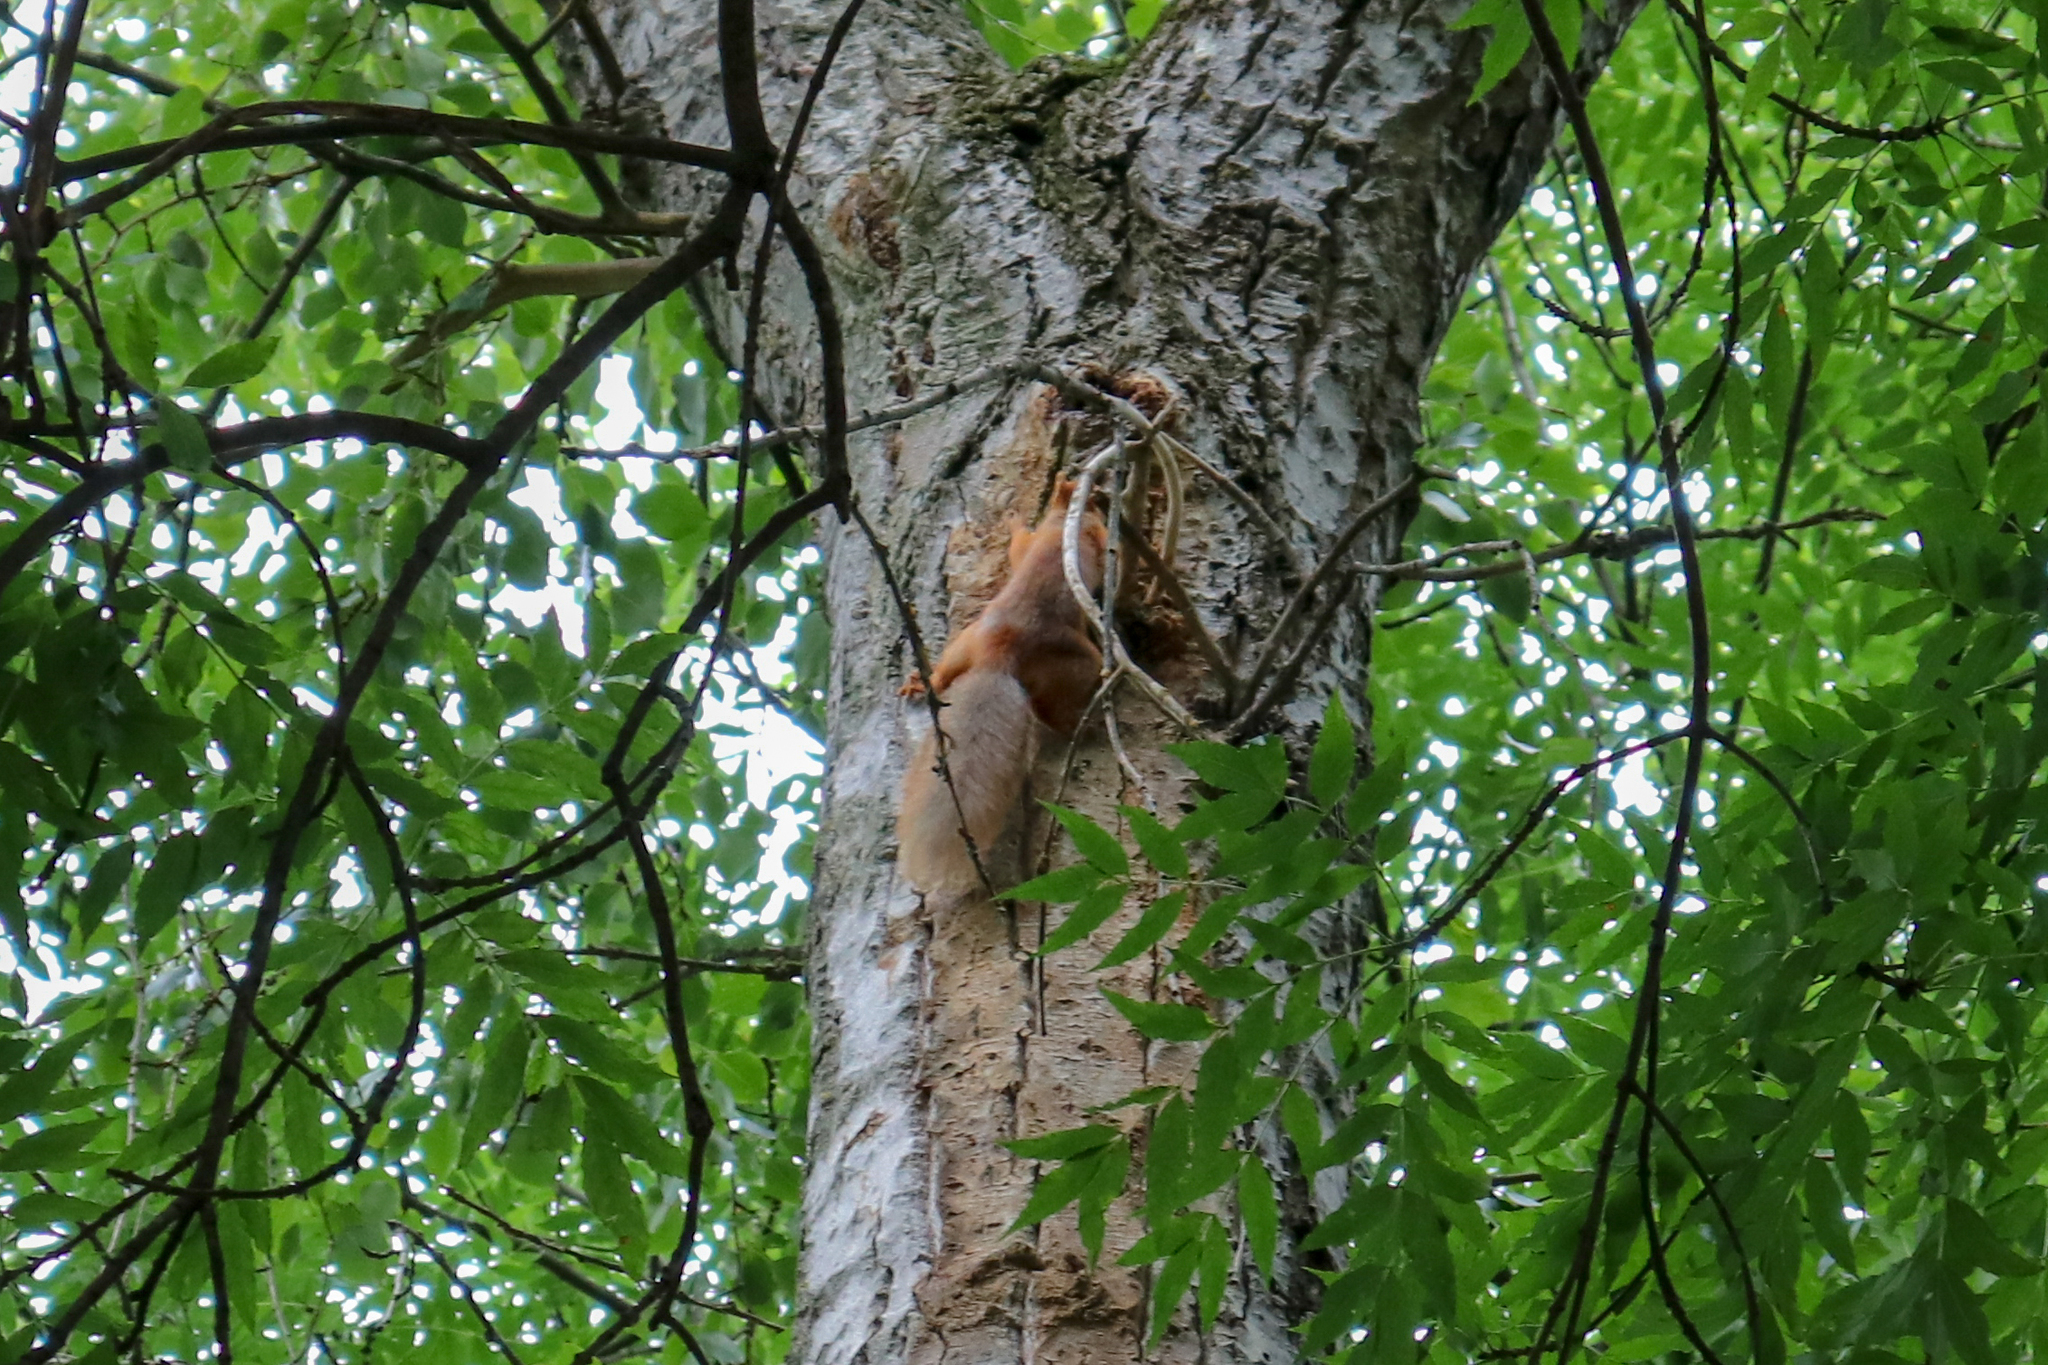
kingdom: Animalia
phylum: Chordata
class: Mammalia
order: Rodentia
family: Sciuridae
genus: Sciurus
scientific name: Sciurus vulgaris
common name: Eurasian red squirrel
